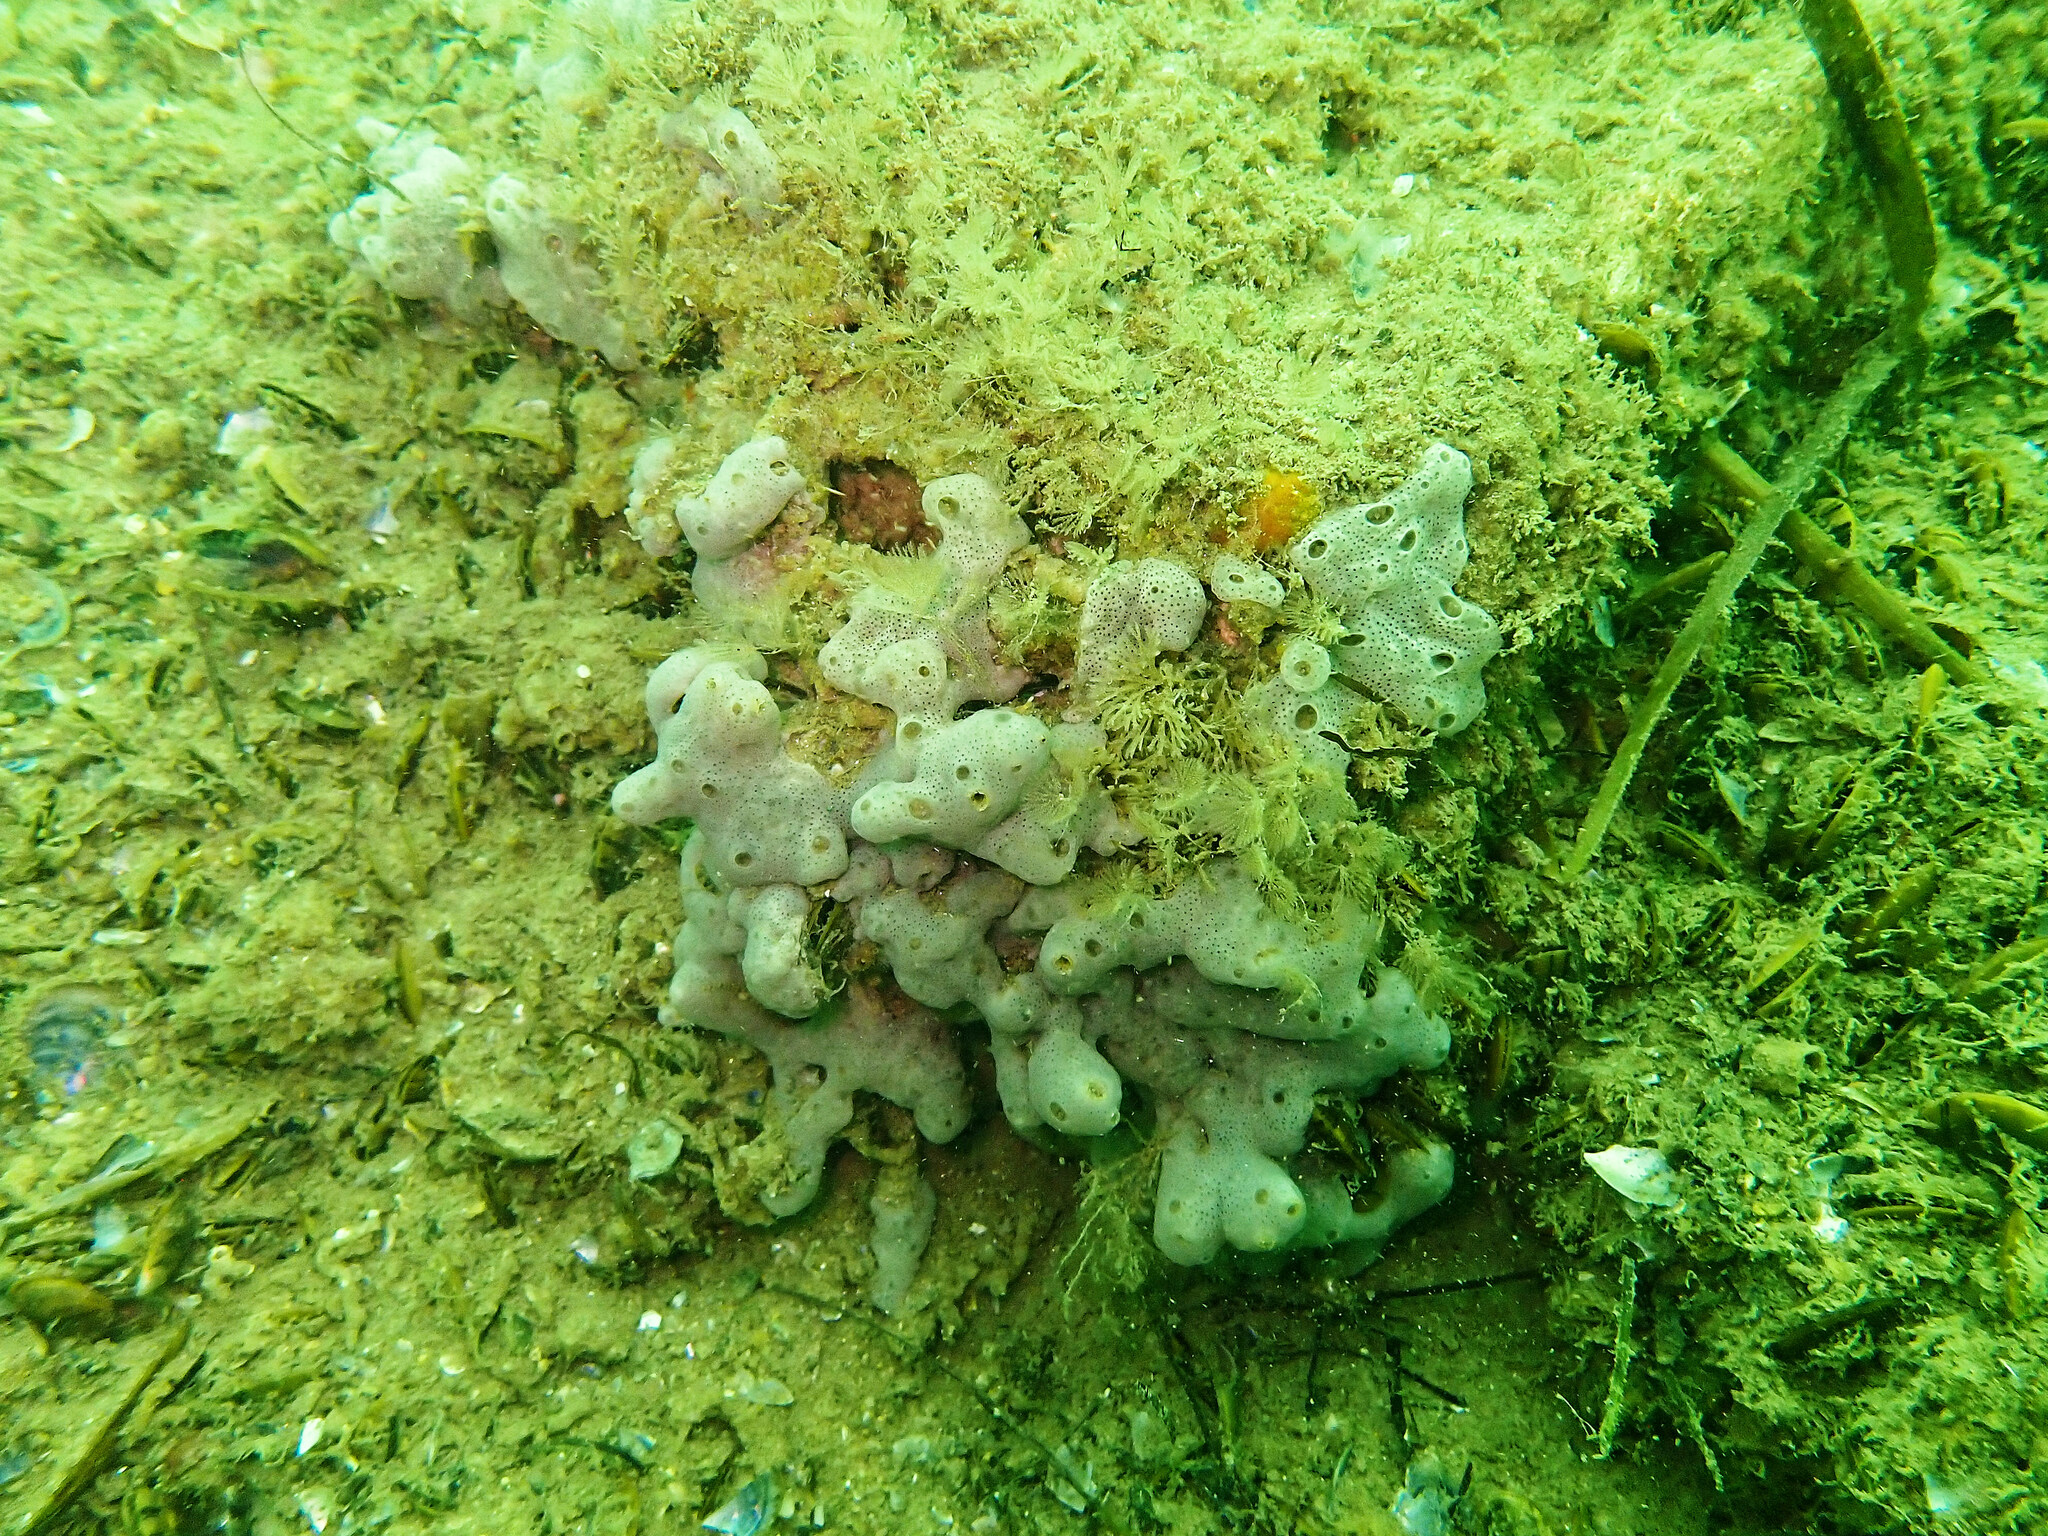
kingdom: Animalia
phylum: Chordata
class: Ascidiacea
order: Aplousobranchia
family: Didemnidae
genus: Lissoclinum
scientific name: Lissoclinum perforatum
